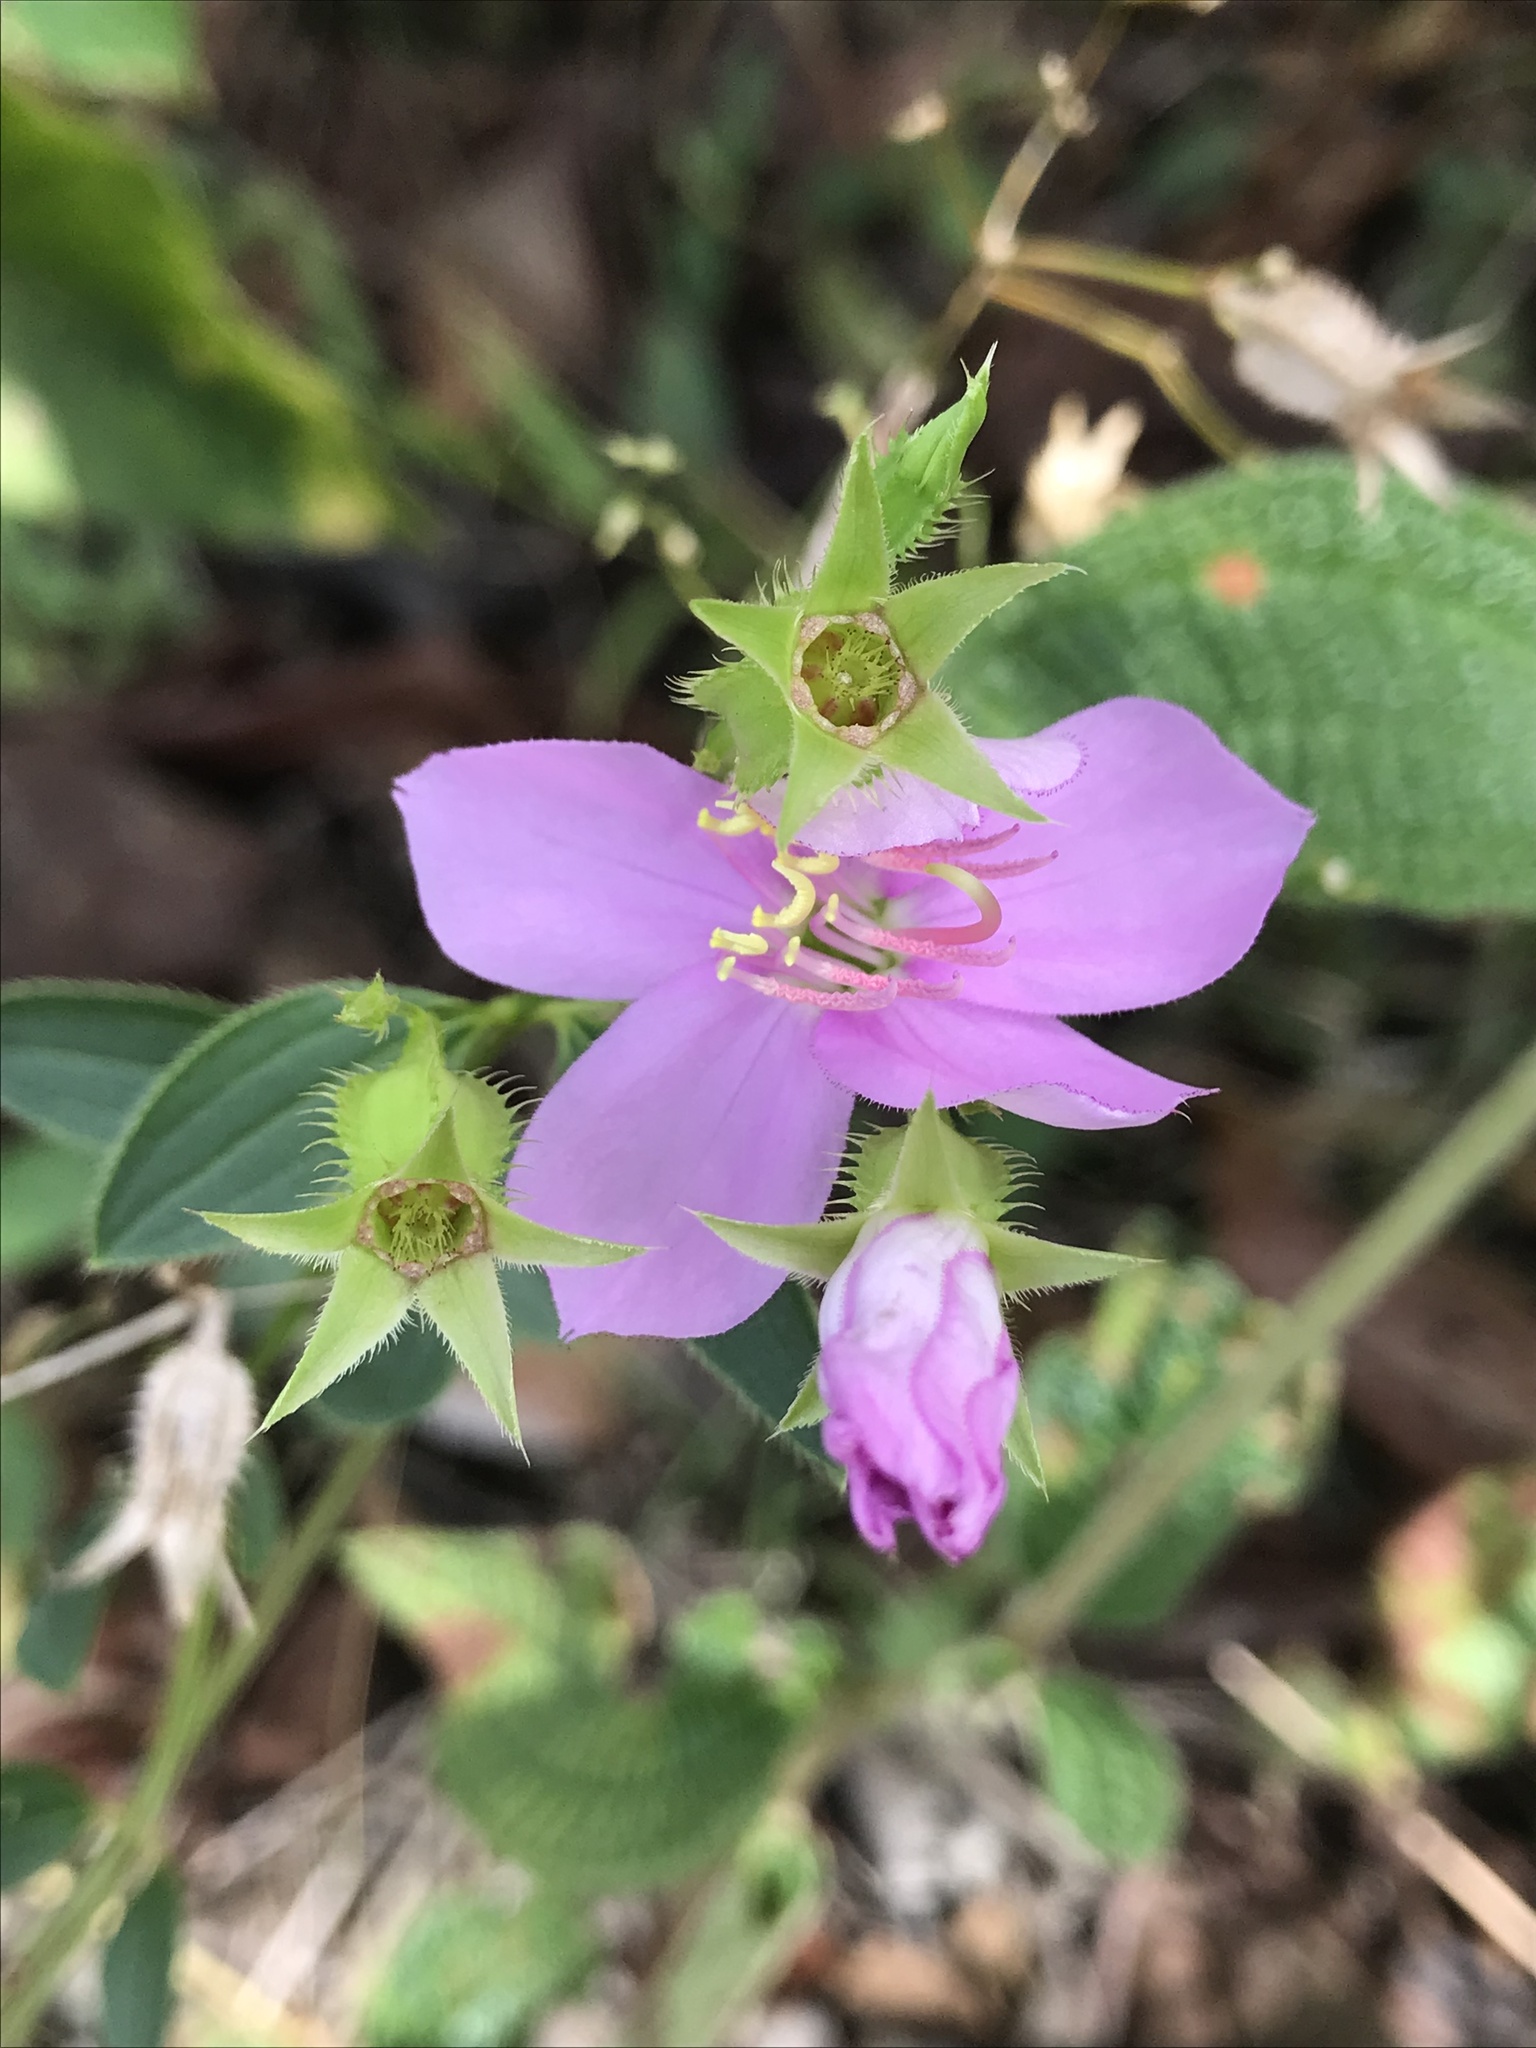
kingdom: Plantae
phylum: Tracheophyta
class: Magnoliopsida
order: Myrtales
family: Melastomataceae
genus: Pterogastra
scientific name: Pterogastra divaricata
